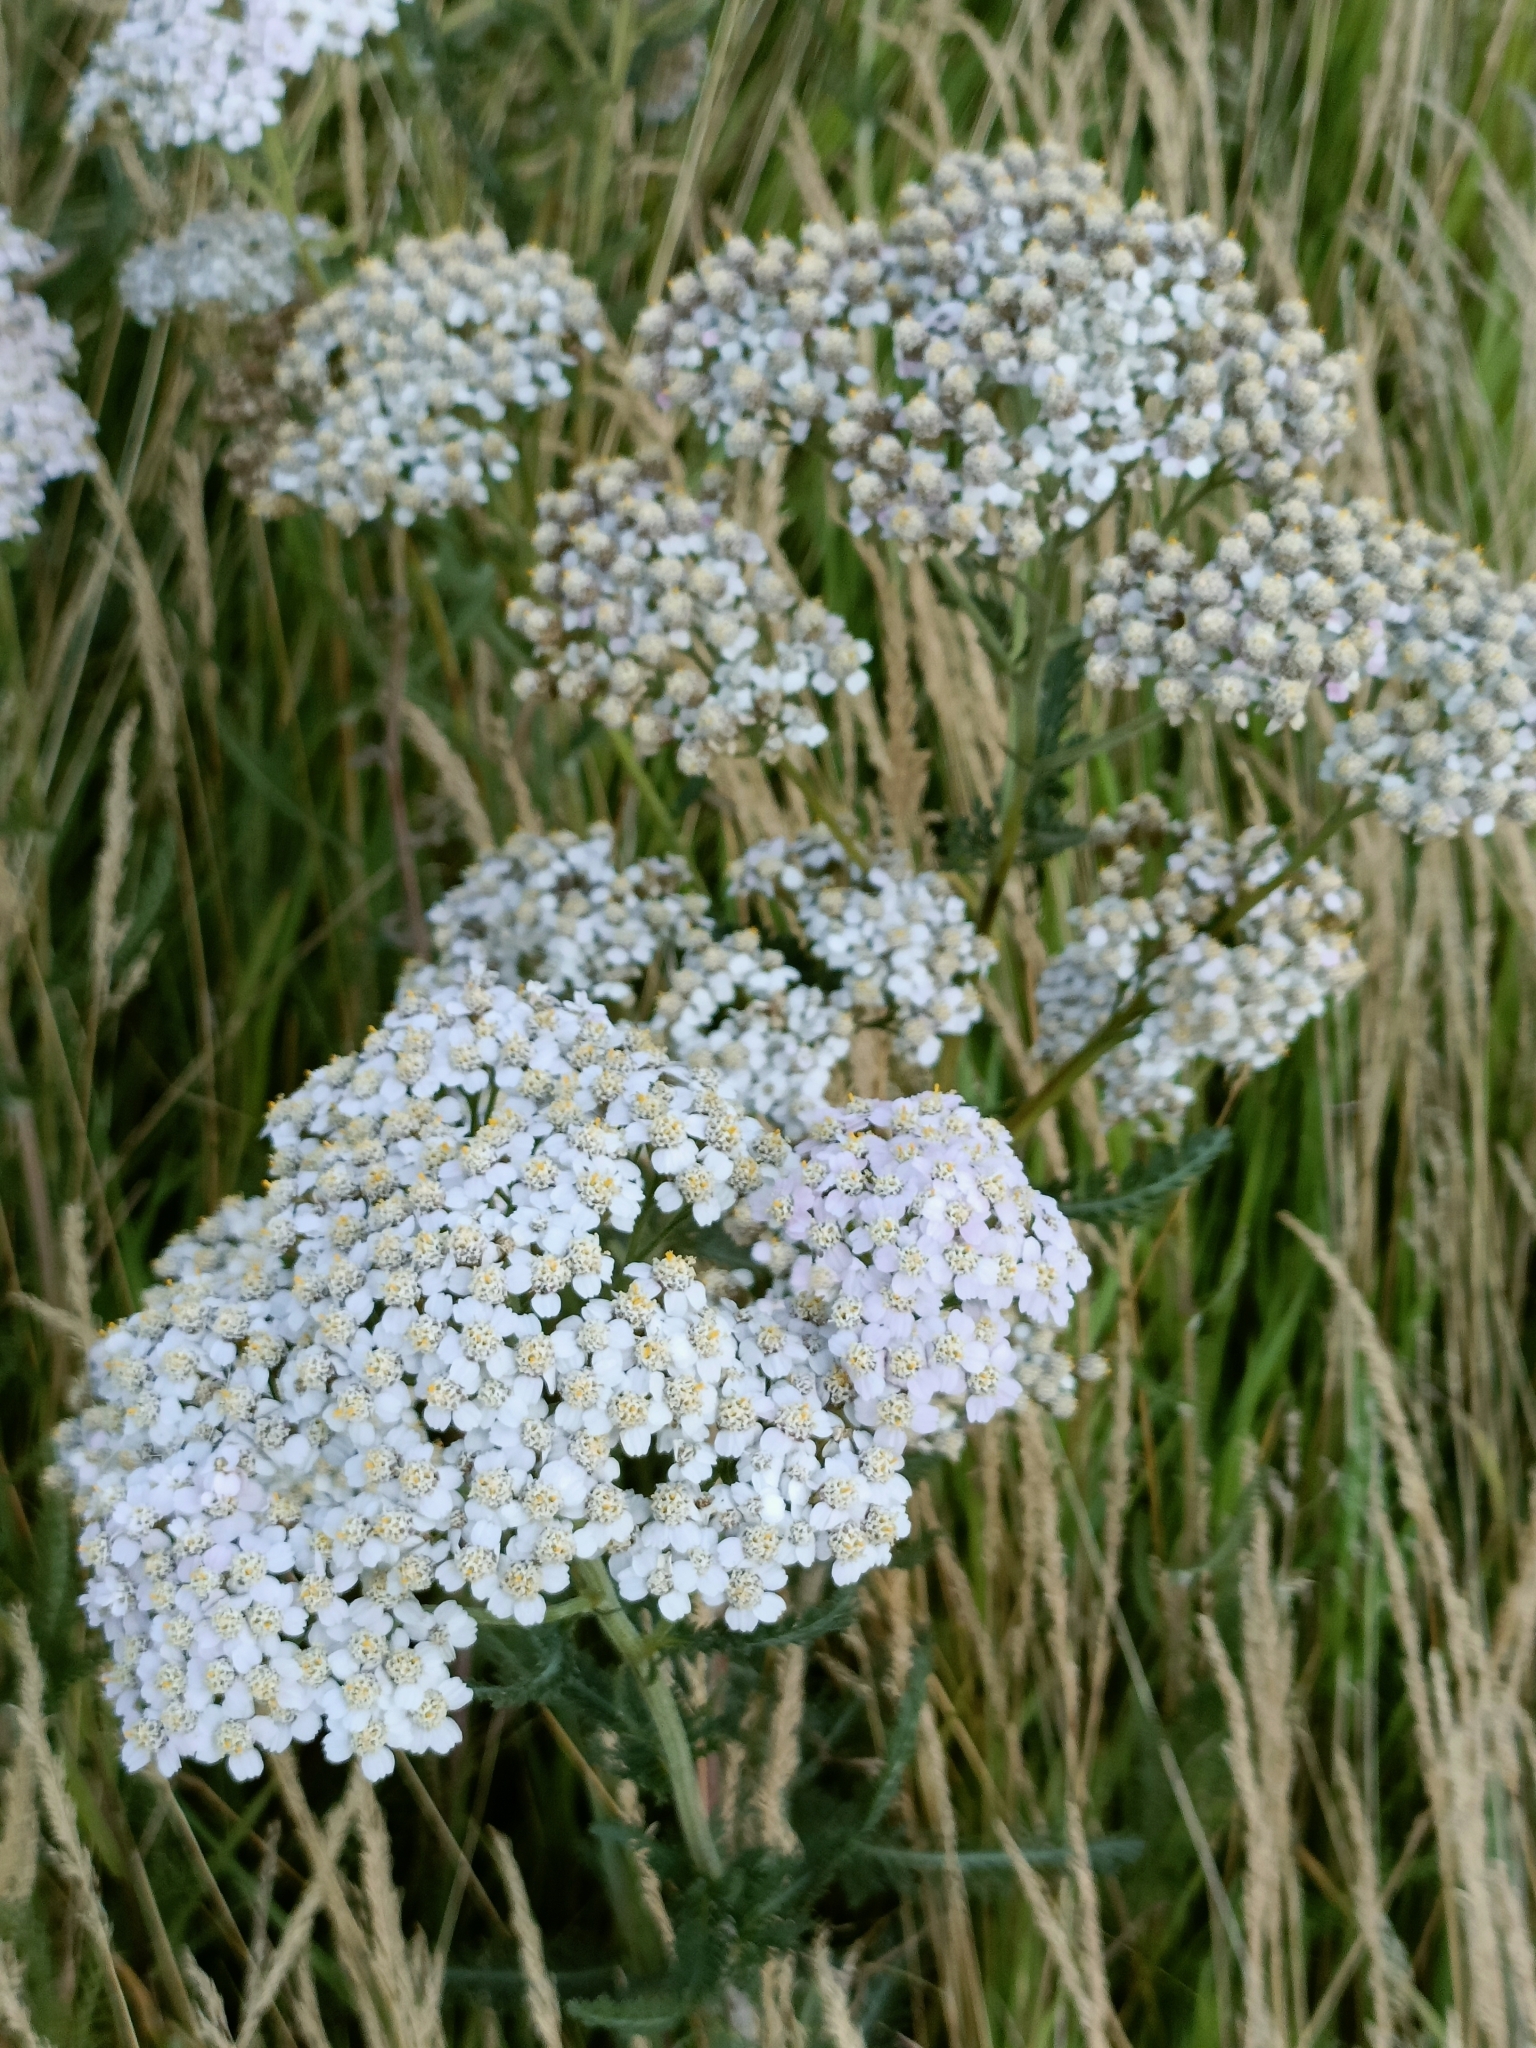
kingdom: Plantae
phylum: Tracheophyta
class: Magnoliopsida
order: Asterales
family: Asteraceae
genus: Achillea
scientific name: Achillea millefolium
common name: Yarrow
